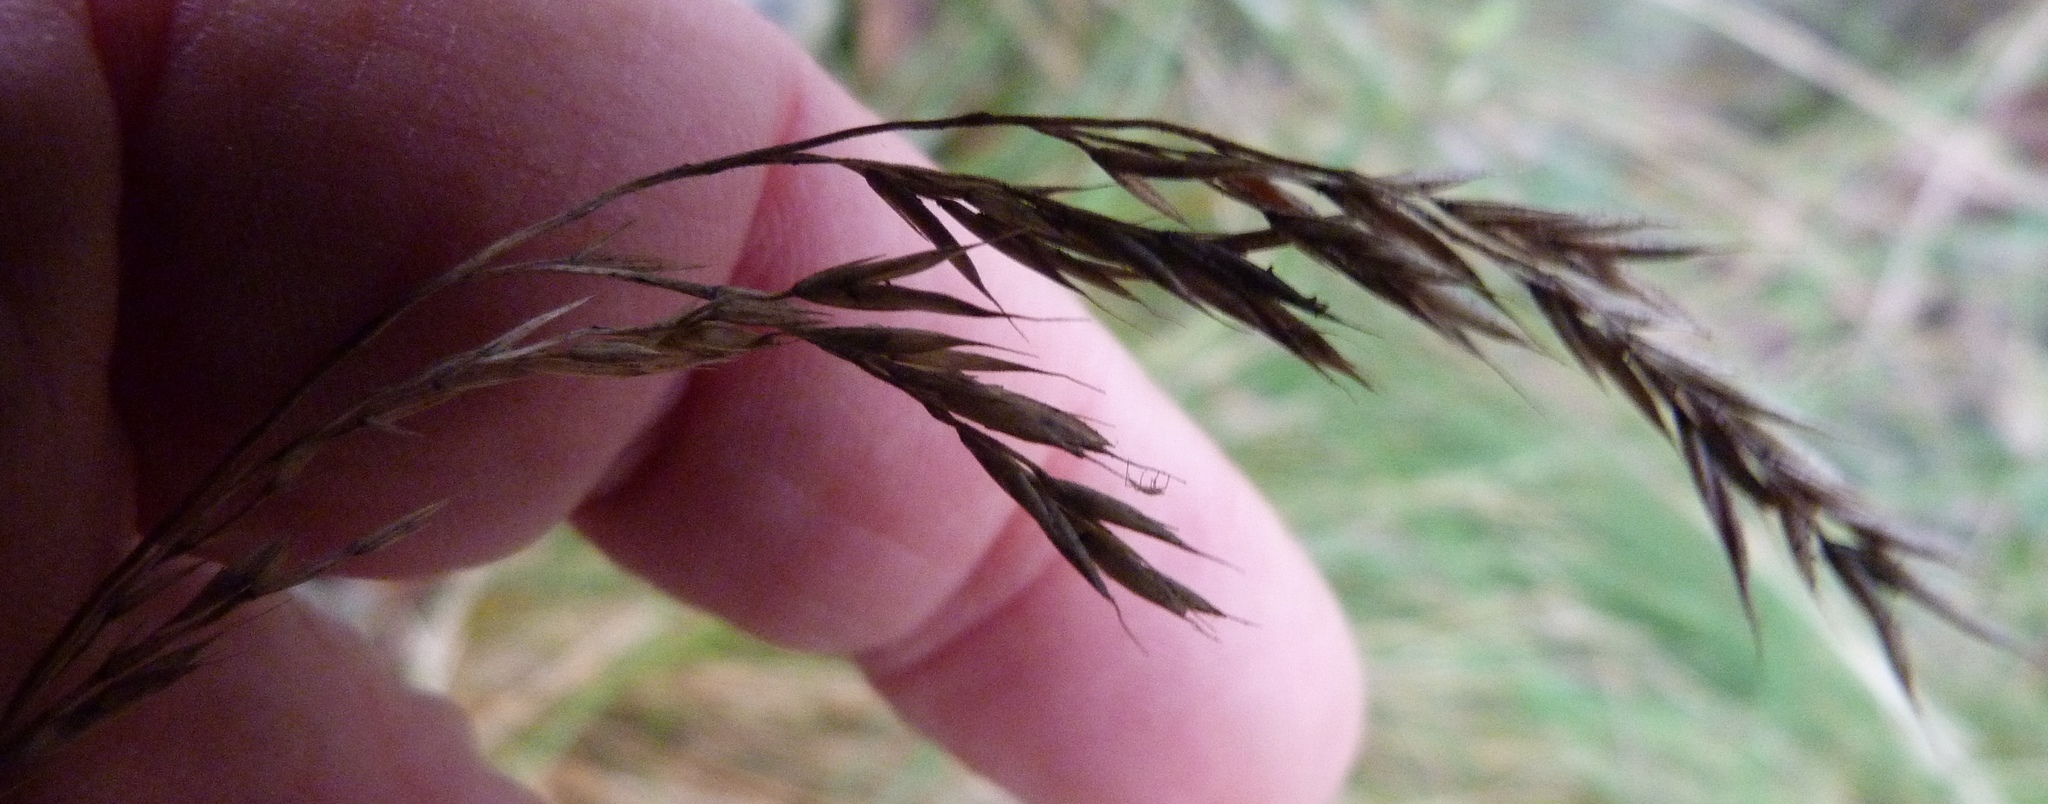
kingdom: Plantae
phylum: Tracheophyta
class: Liliopsida
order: Poales
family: Poaceae
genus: Festuca
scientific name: Festuca rubra
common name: Red fescue
